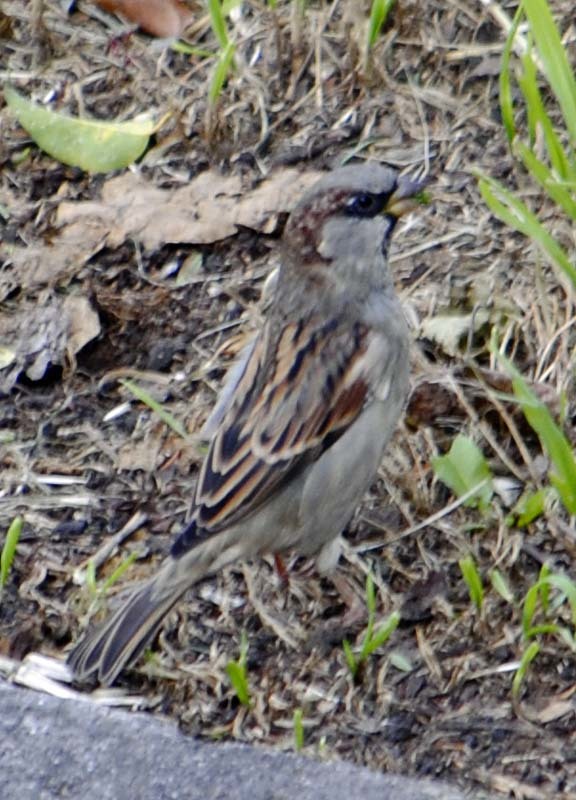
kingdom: Animalia
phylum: Chordata
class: Aves
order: Passeriformes
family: Passeridae
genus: Passer
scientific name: Passer domesticus
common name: House sparrow
